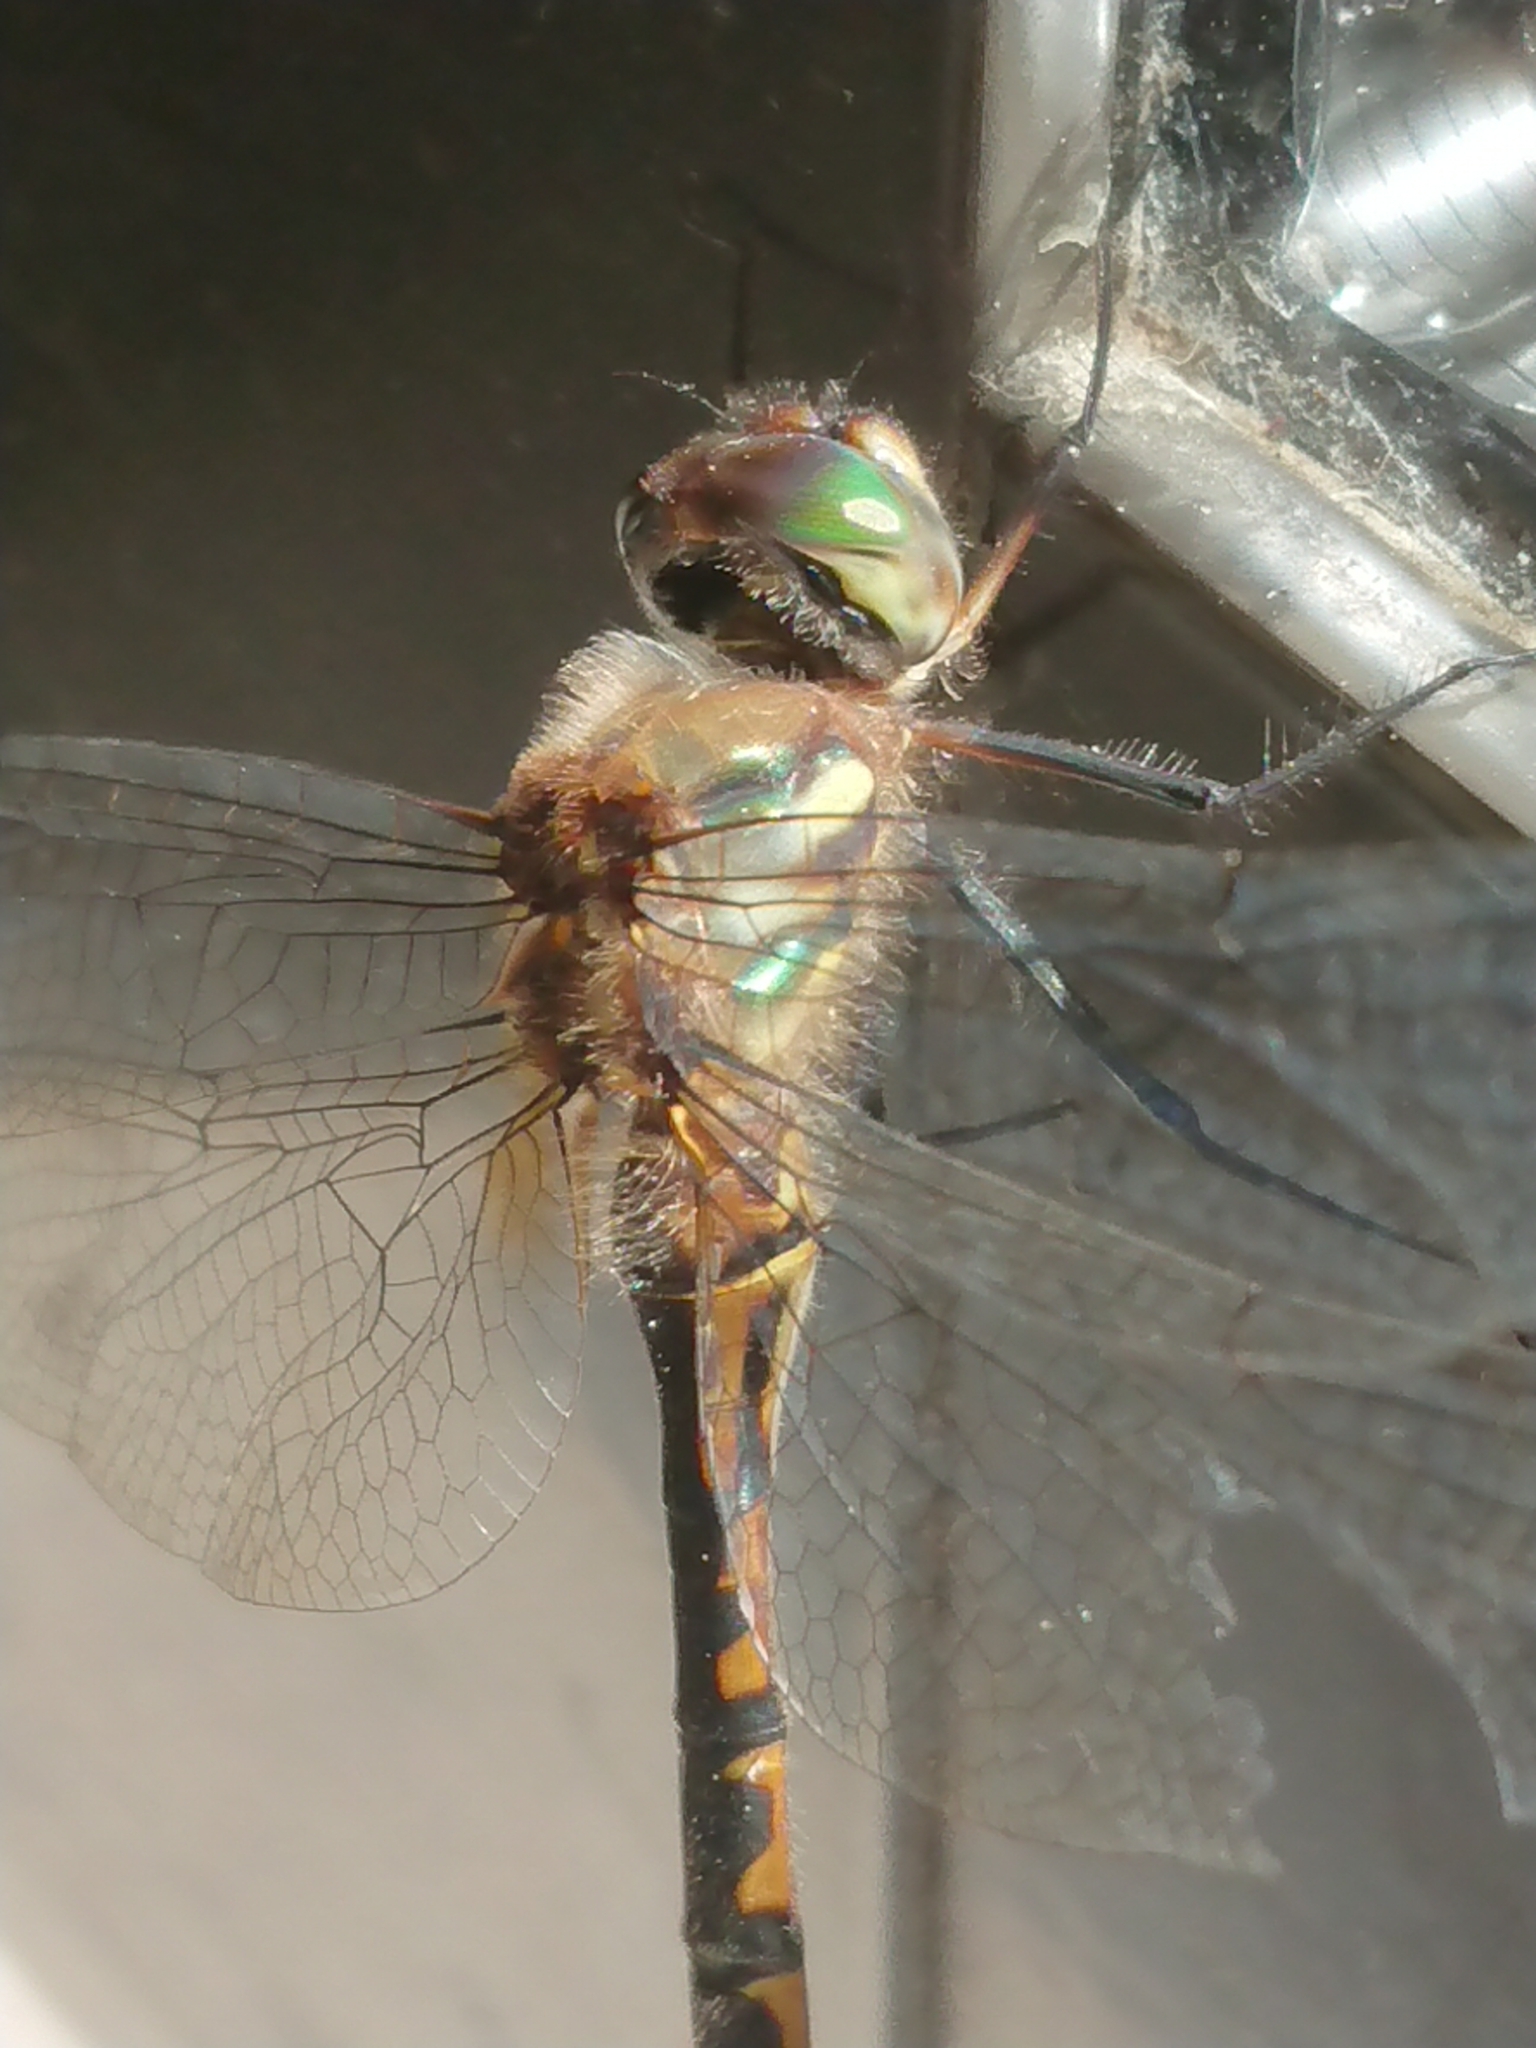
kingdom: Animalia
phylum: Arthropoda
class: Insecta
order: Odonata
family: Corduliidae
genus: Hemicordulia
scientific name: Hemicordulia armstrongi
